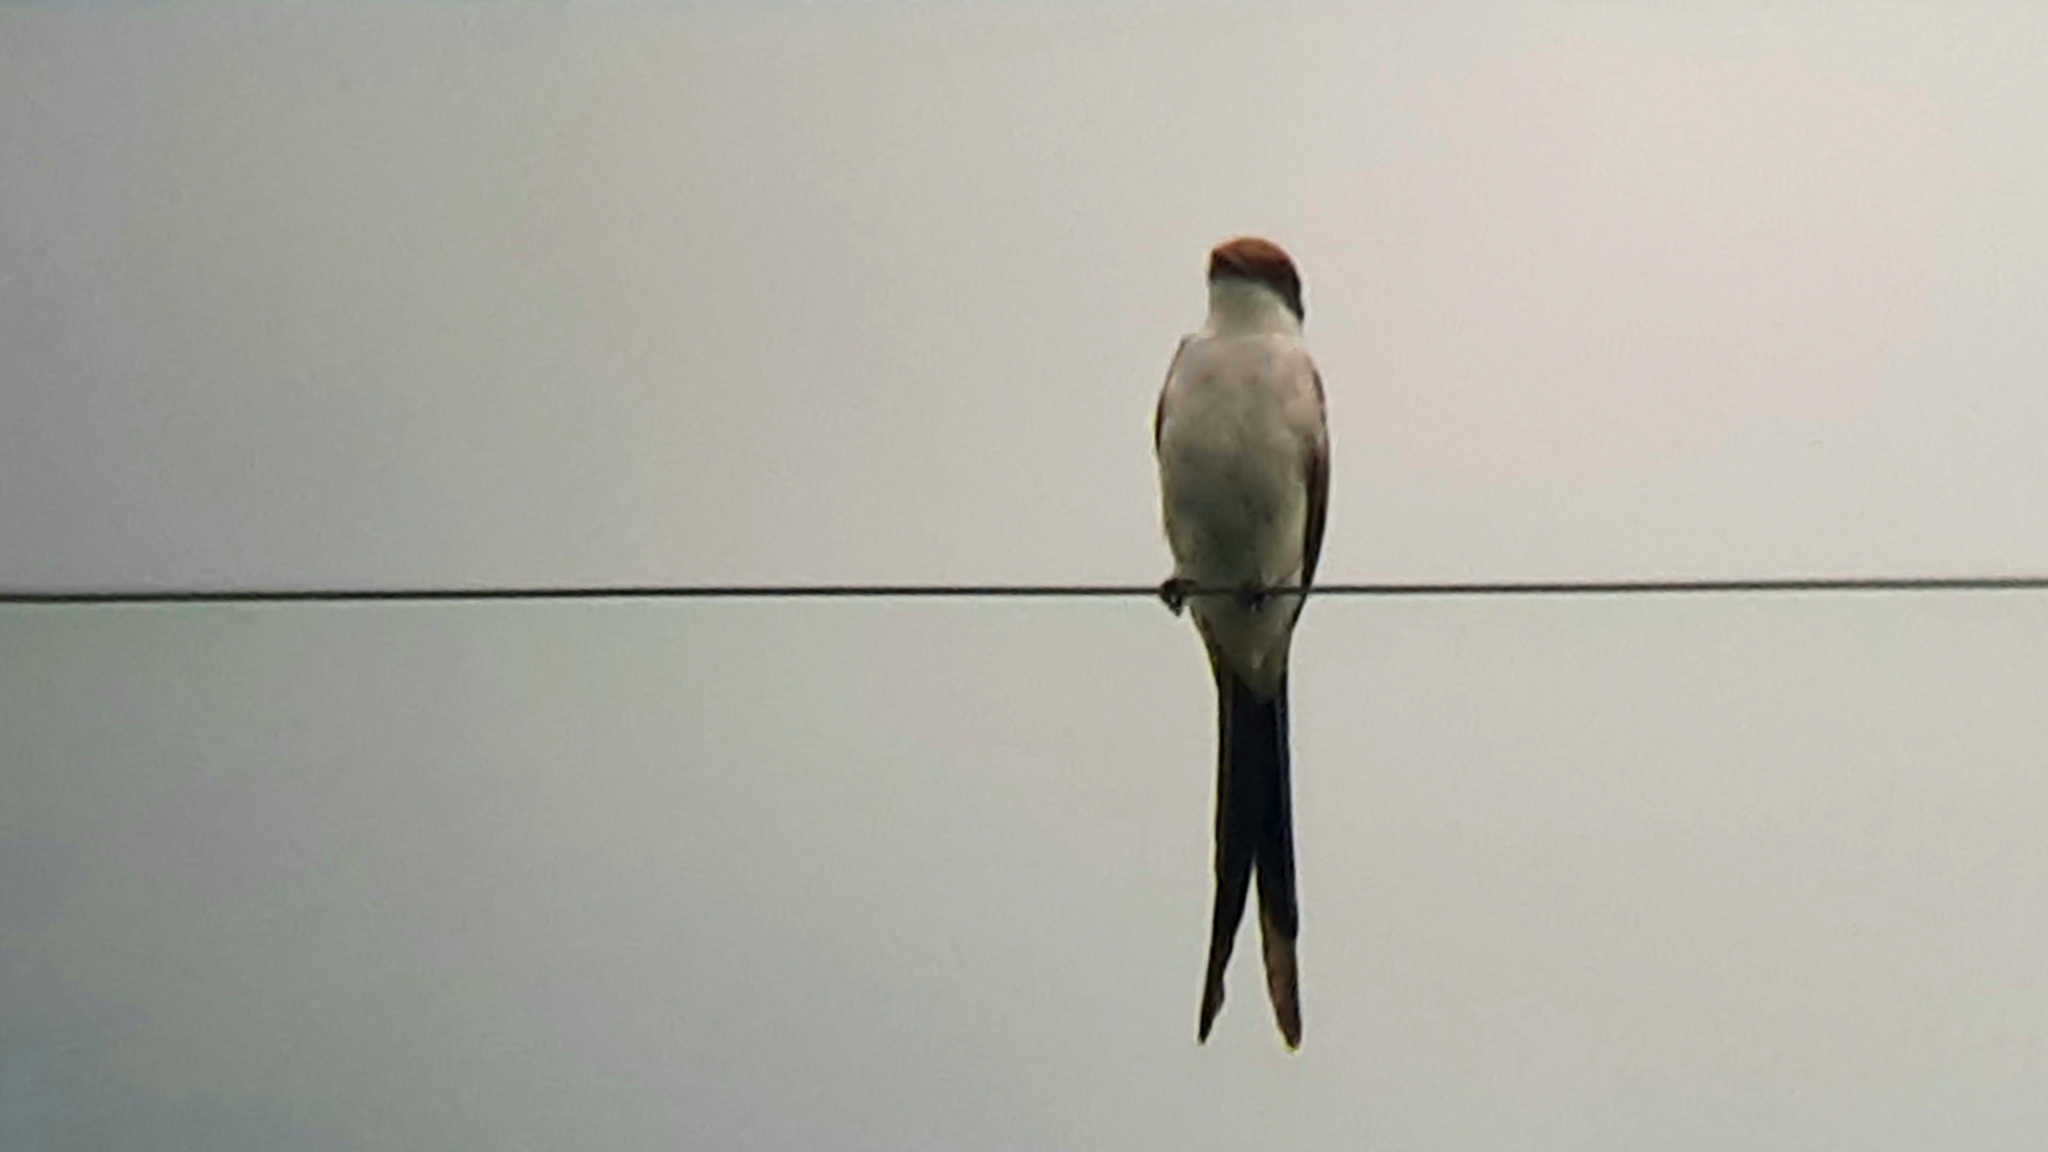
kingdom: Animalia
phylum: Chordata
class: Aves
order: Passeriformes
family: Tyrannidae
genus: Tyrannus
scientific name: Tyrannus savana
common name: Fork-tailed flycatcher
